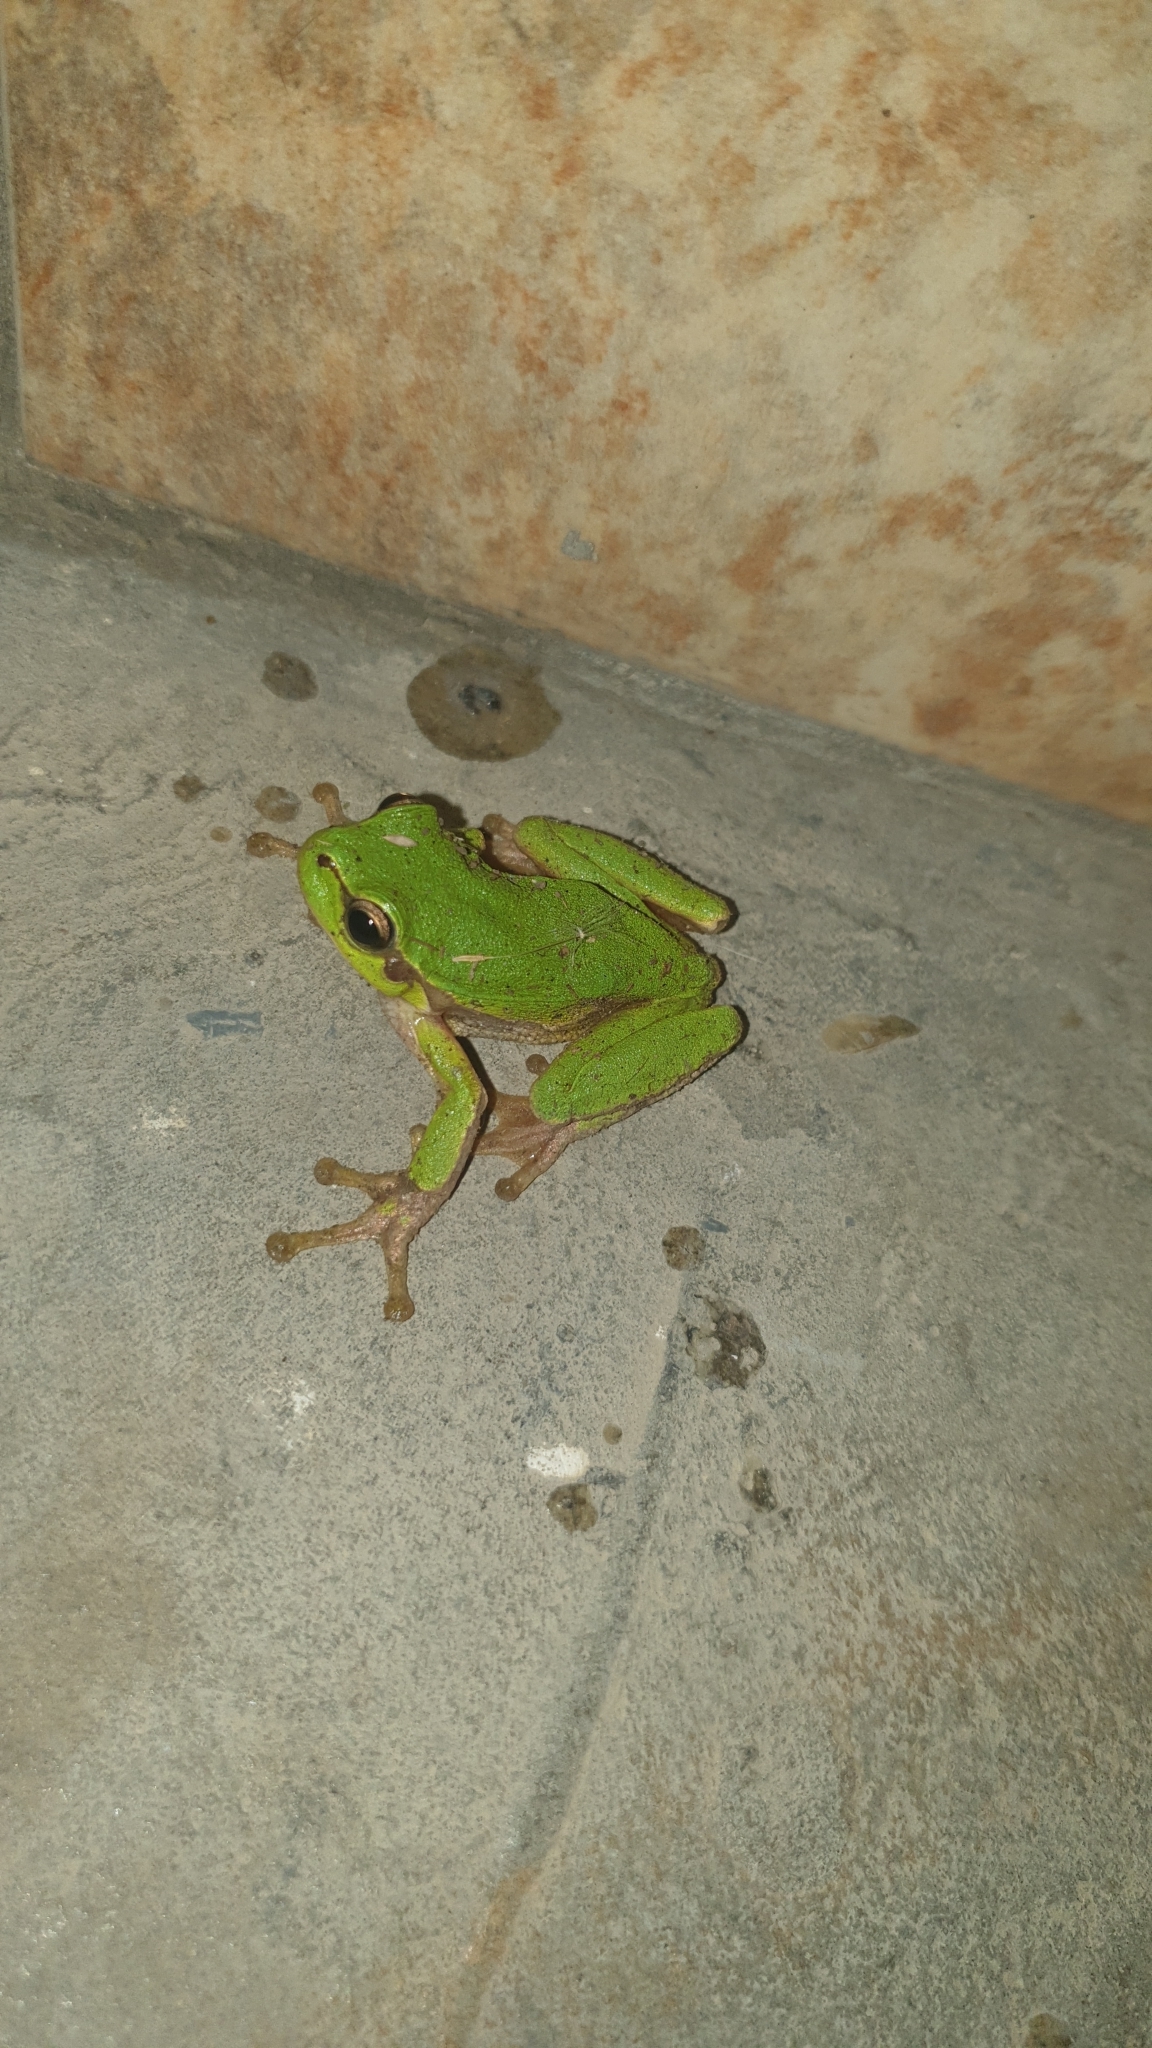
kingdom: Animalia
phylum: Chordata
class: Amphibia
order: Anura
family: Hylidae
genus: Hyla
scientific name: Hyla orientalis
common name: Caucasian treefrog
